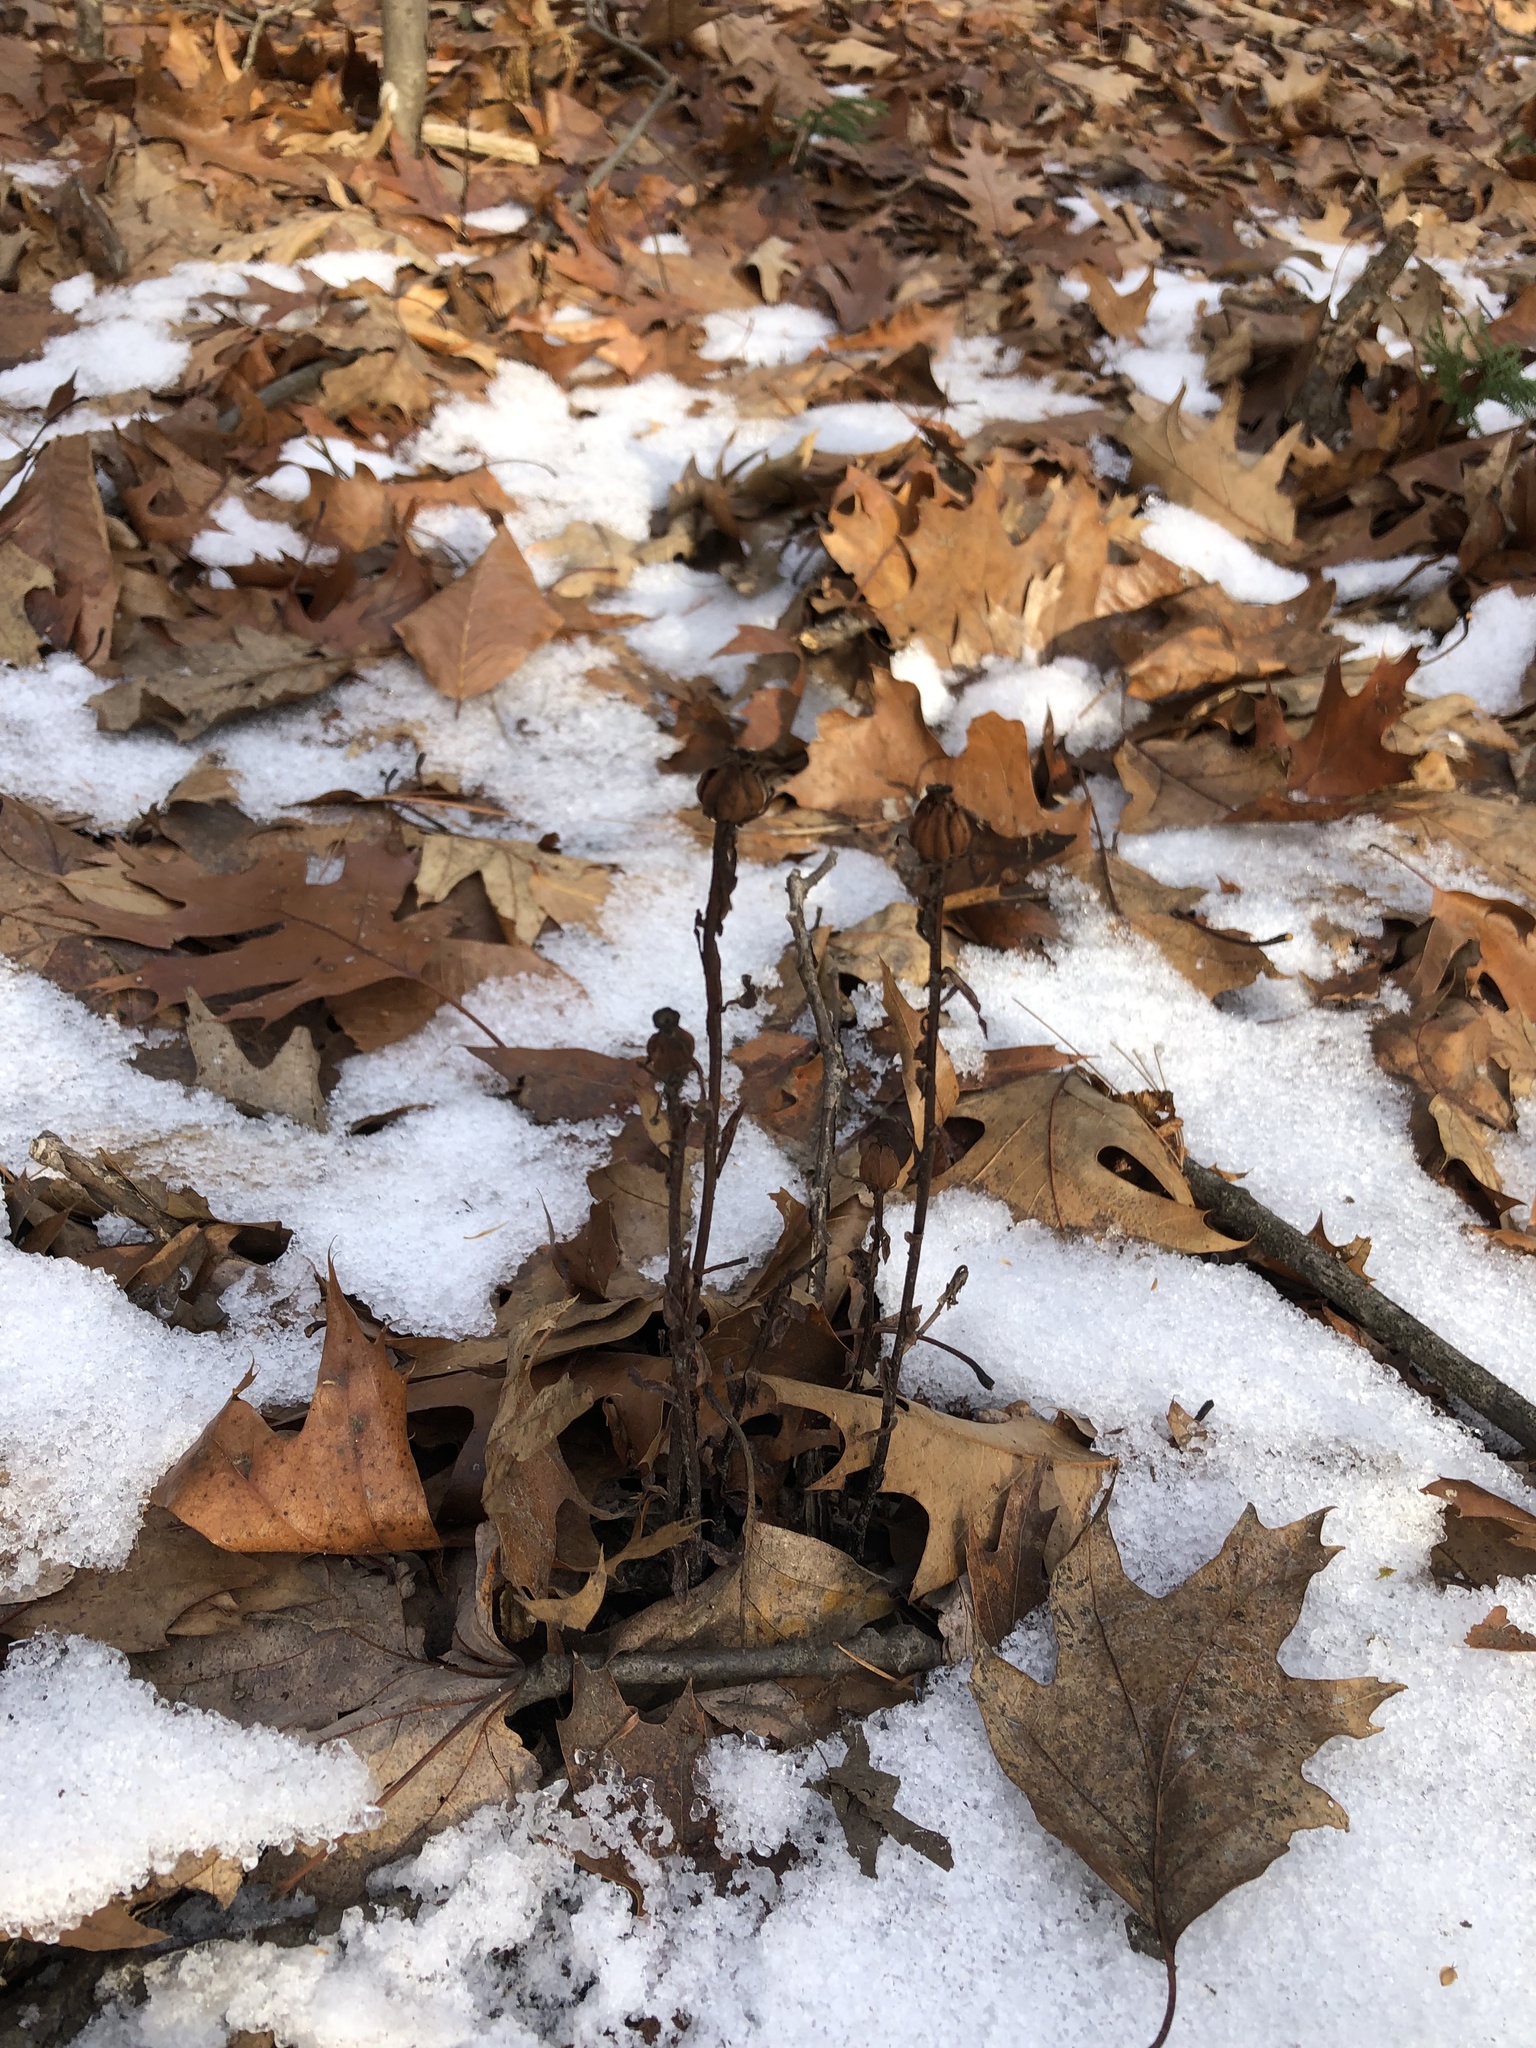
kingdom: Plantae
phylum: Tracheophyta
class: Magnoliopsida
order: Ericales
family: Ericaceae
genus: Monotropa
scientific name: Monotropa uniflora
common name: Convulsion root
